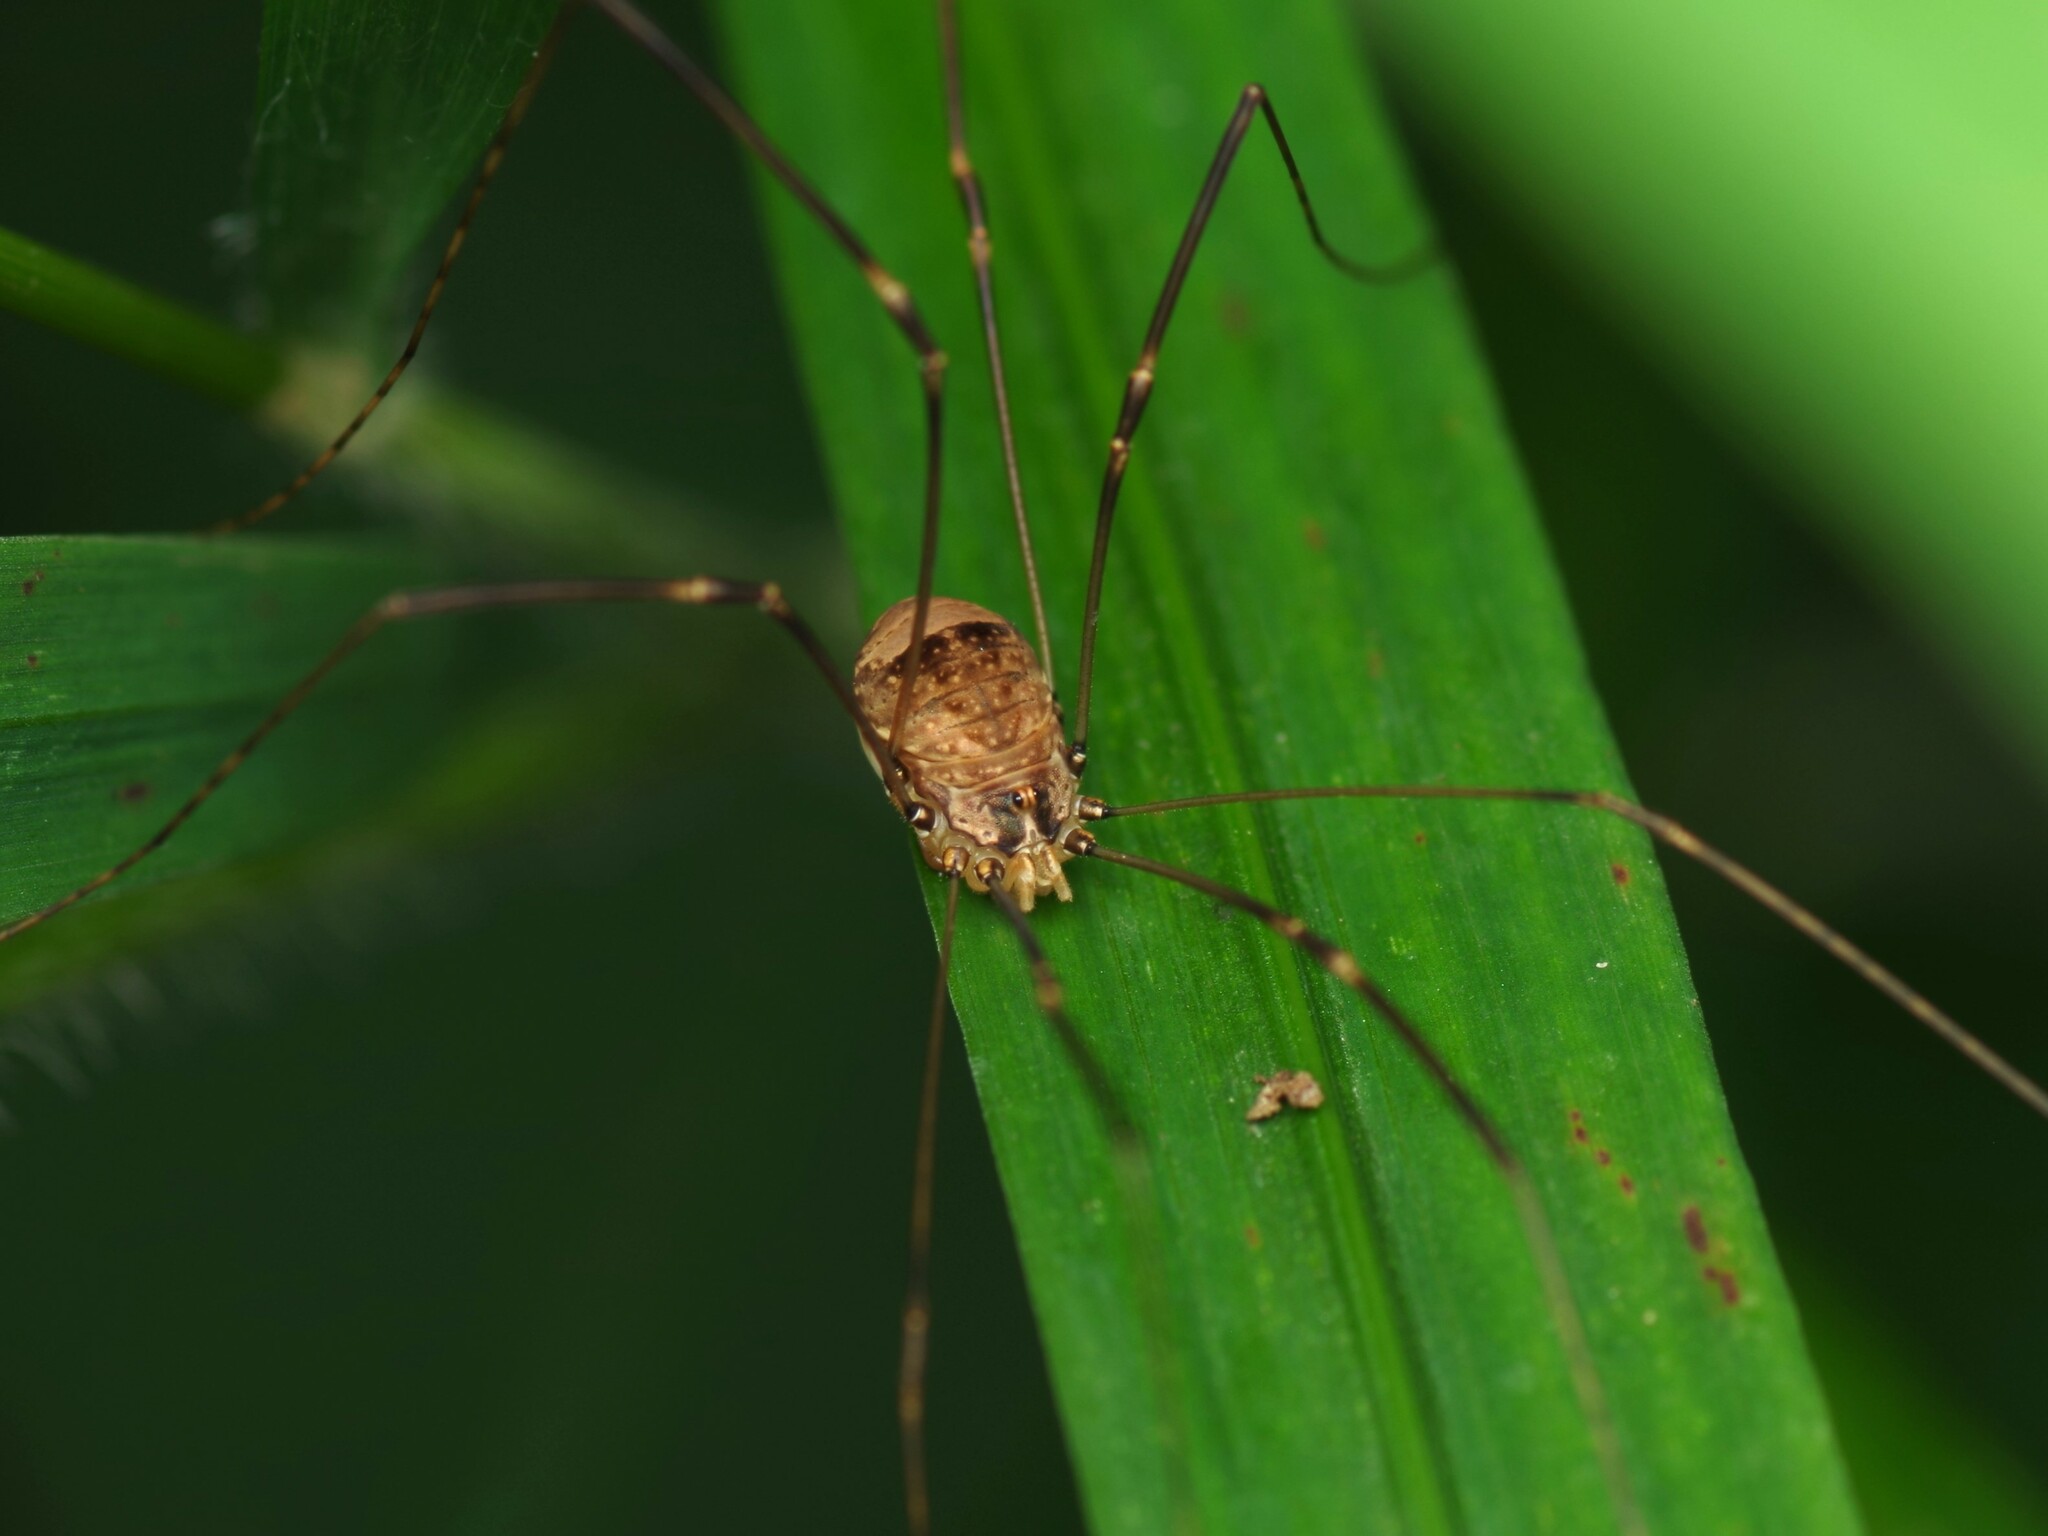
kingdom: Animalia
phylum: Arthropoda
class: Arachnida
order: Opiliones
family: Sclerosomatidae
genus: Leiobunum
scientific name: Leiobunum blackwalli
